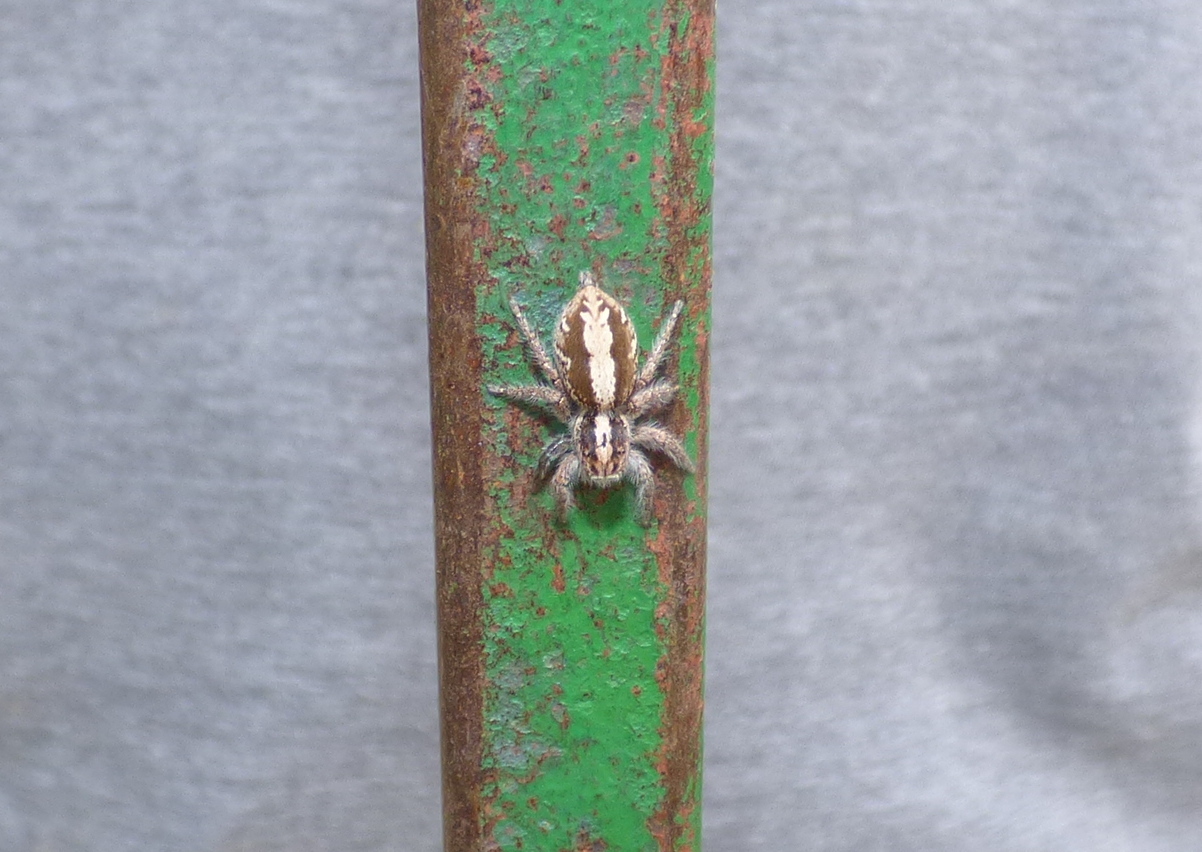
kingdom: Animalia
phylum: Arthropoda
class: Arachnida
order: Araneae
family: Salticidae
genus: Megafreya
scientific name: Megafreya sutrix
